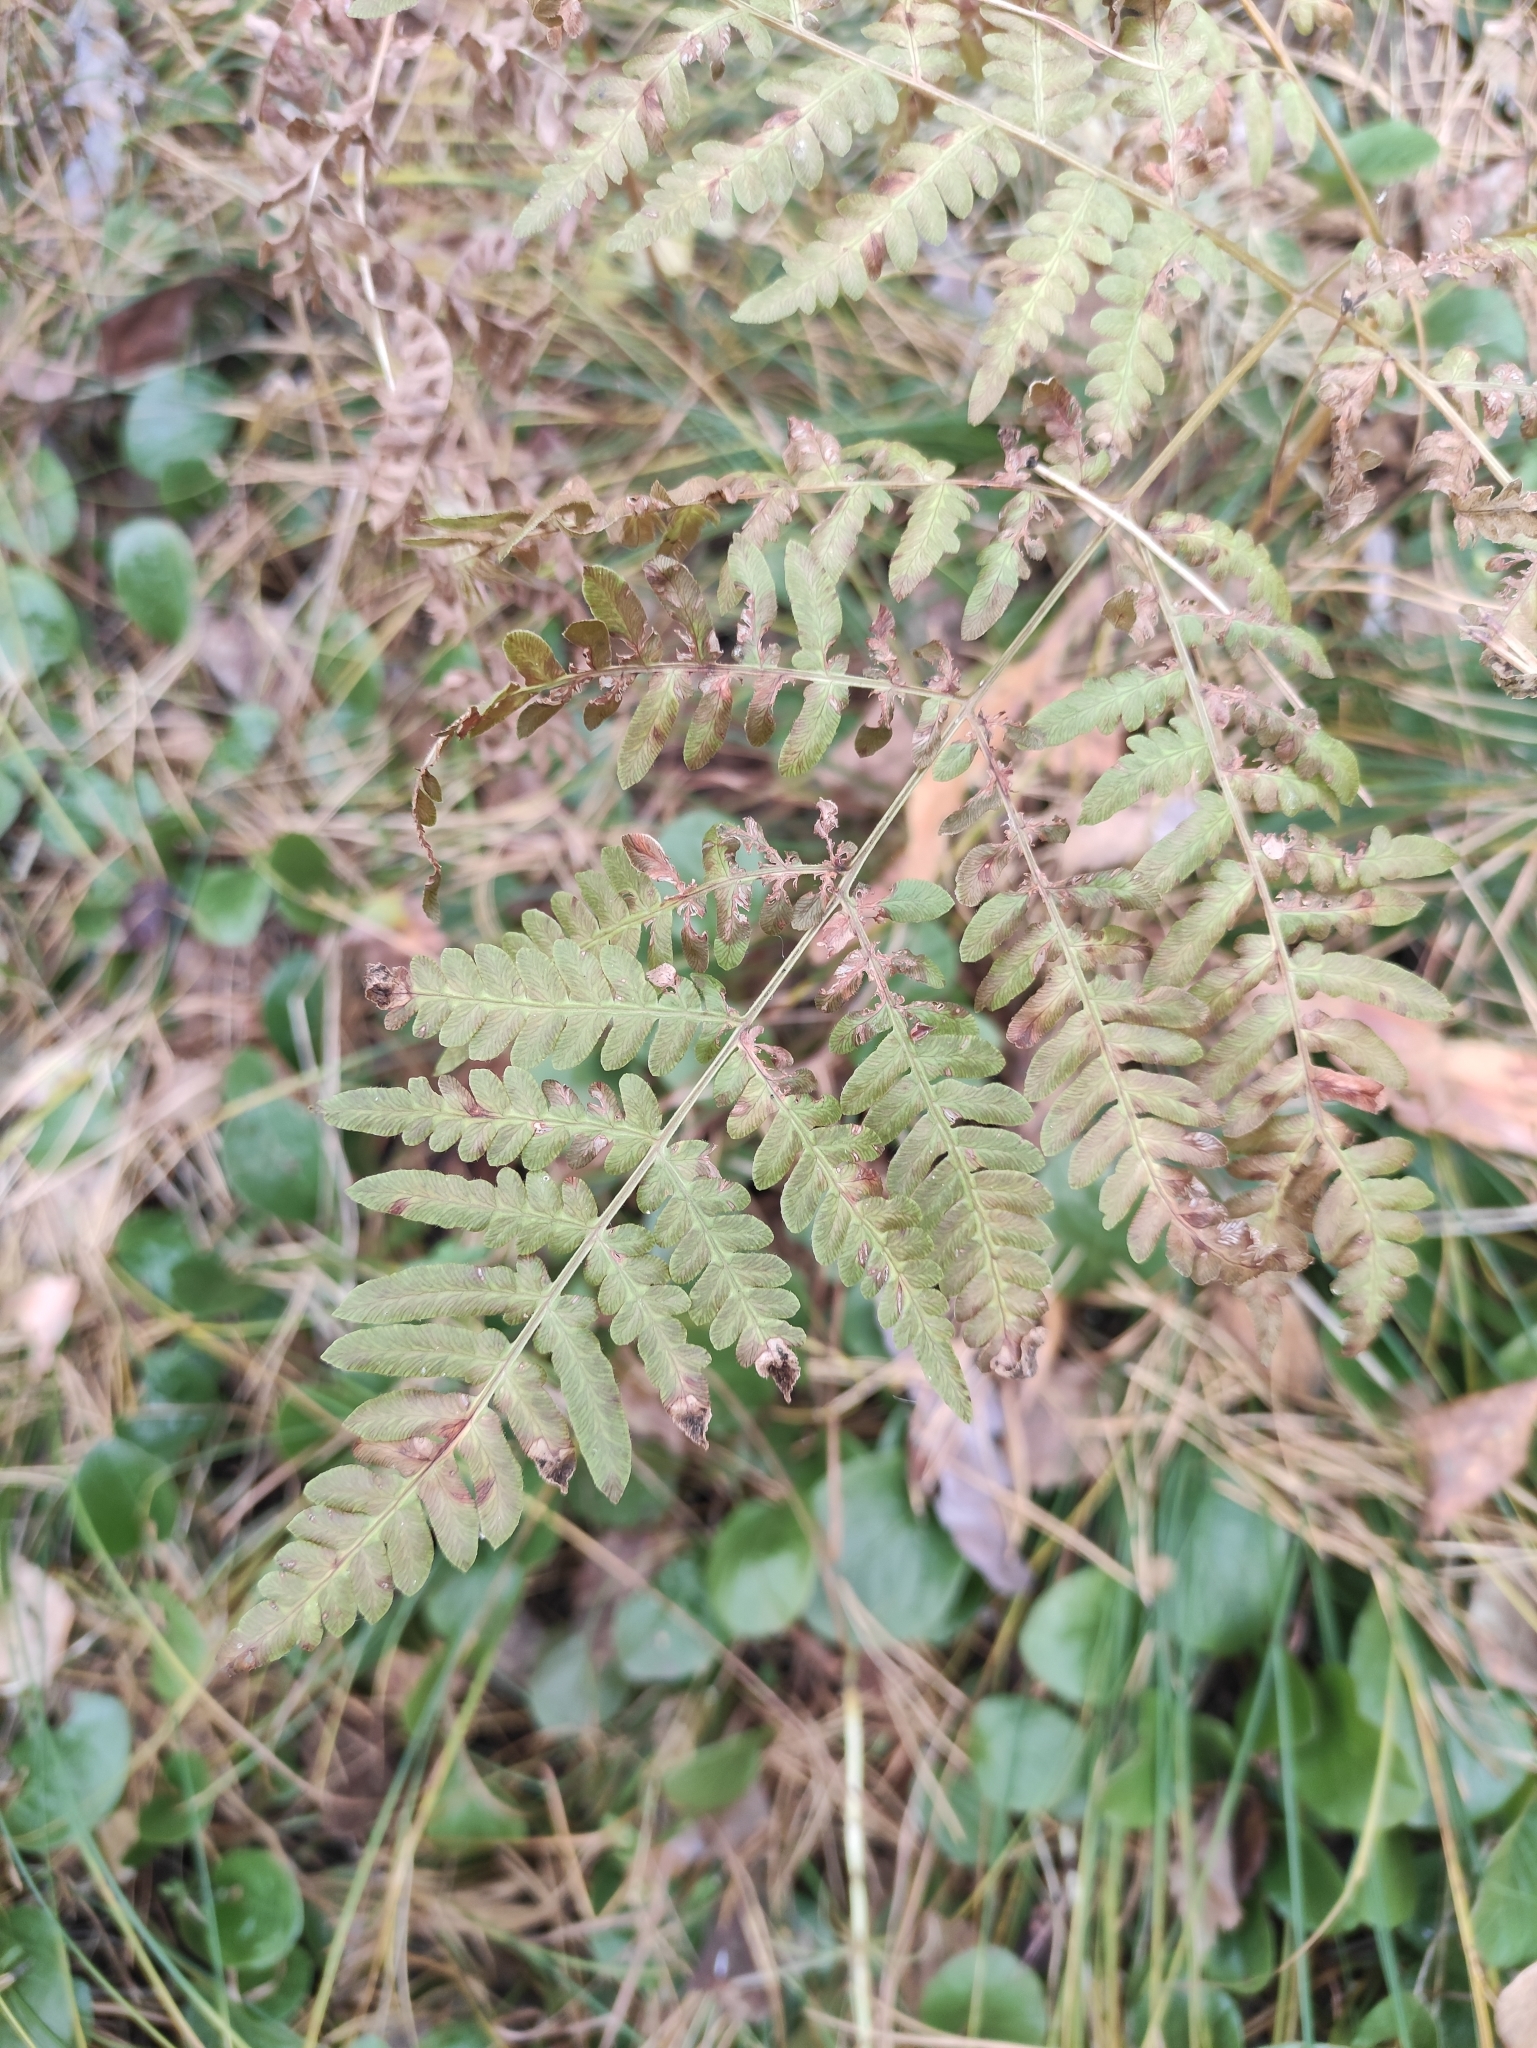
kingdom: Plantae
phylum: Tracheophyta
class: Polypodiopsida
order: Polypodiales
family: Dennstaedtiaceae
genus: Pteridium
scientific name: Pteridium aquilinum
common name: Bracken
